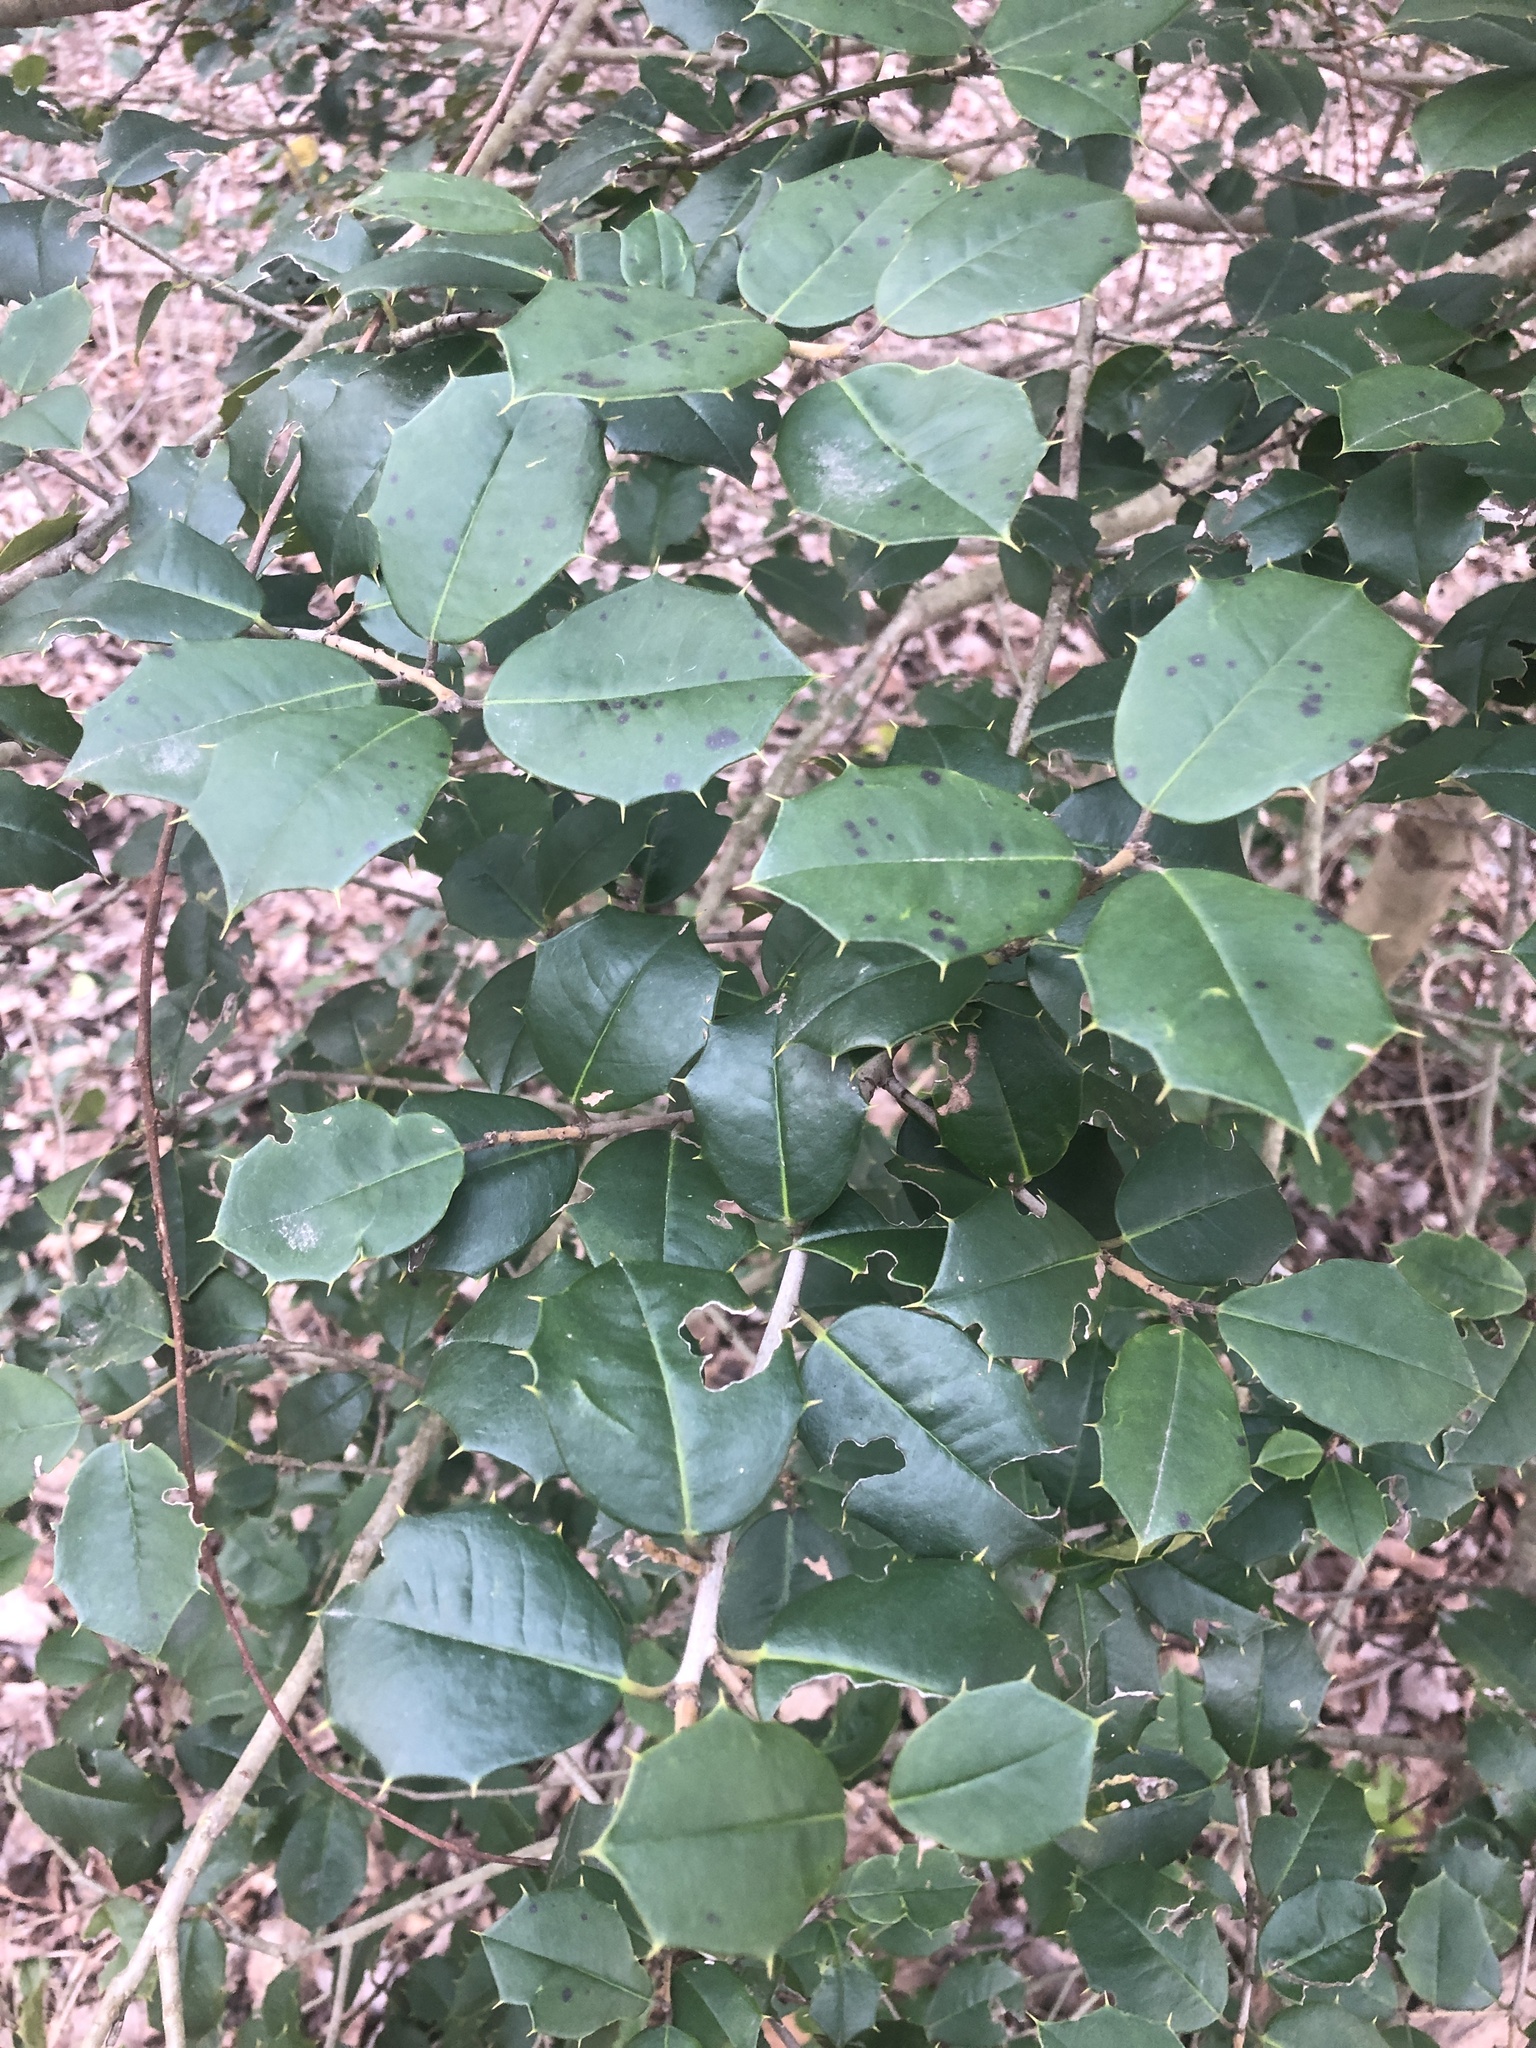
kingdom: Plantae
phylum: Tracheophyta
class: Magnoliopsida
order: Aquifoliales
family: Aquifoliaceae
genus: Ilex
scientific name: Ilex opaca
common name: American holly
